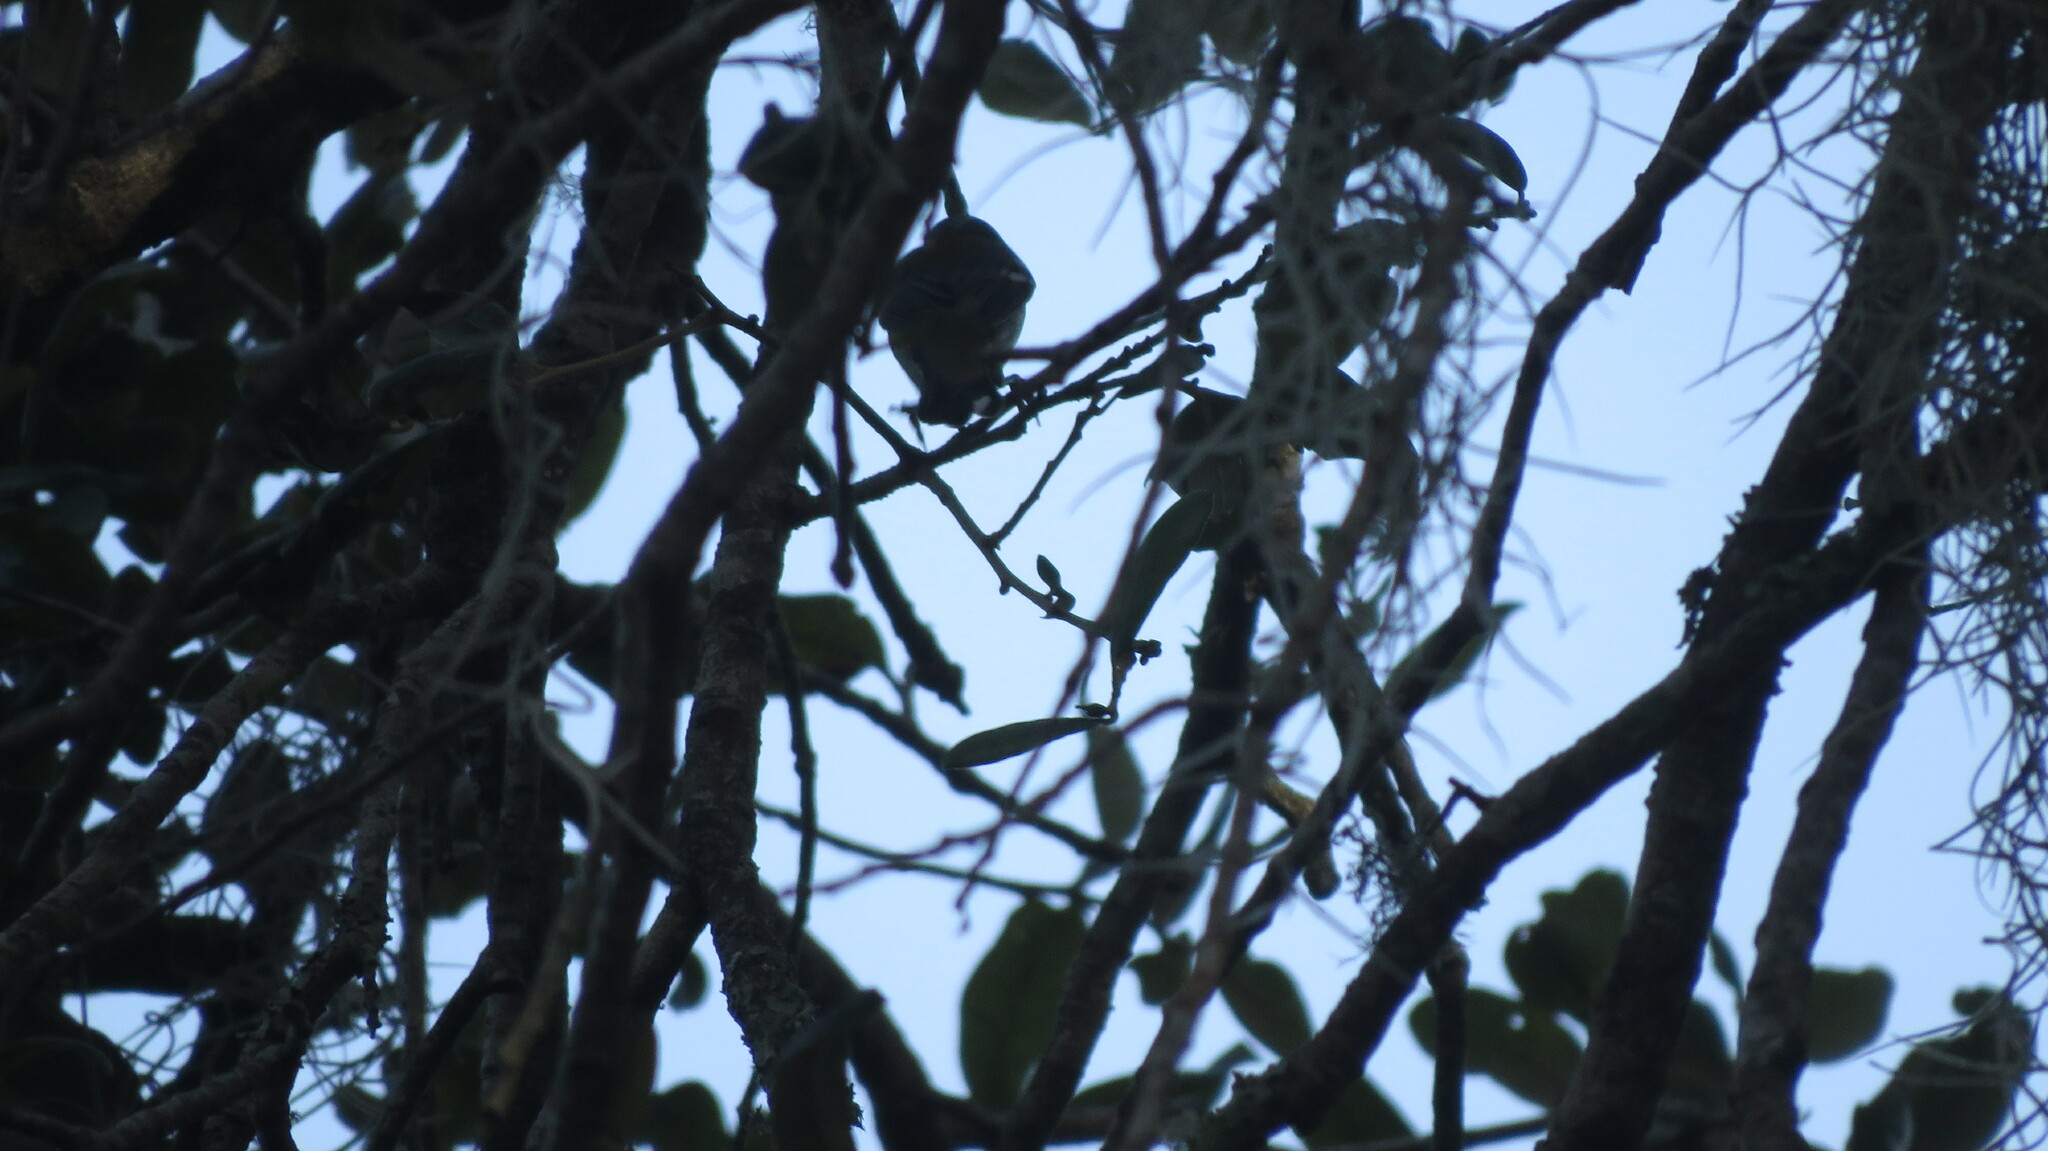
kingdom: Animalia
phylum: Chordata
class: Aves
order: Passeriformes
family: Parulidae
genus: Setophaga
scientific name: Setophaga americana
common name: Northern parula
